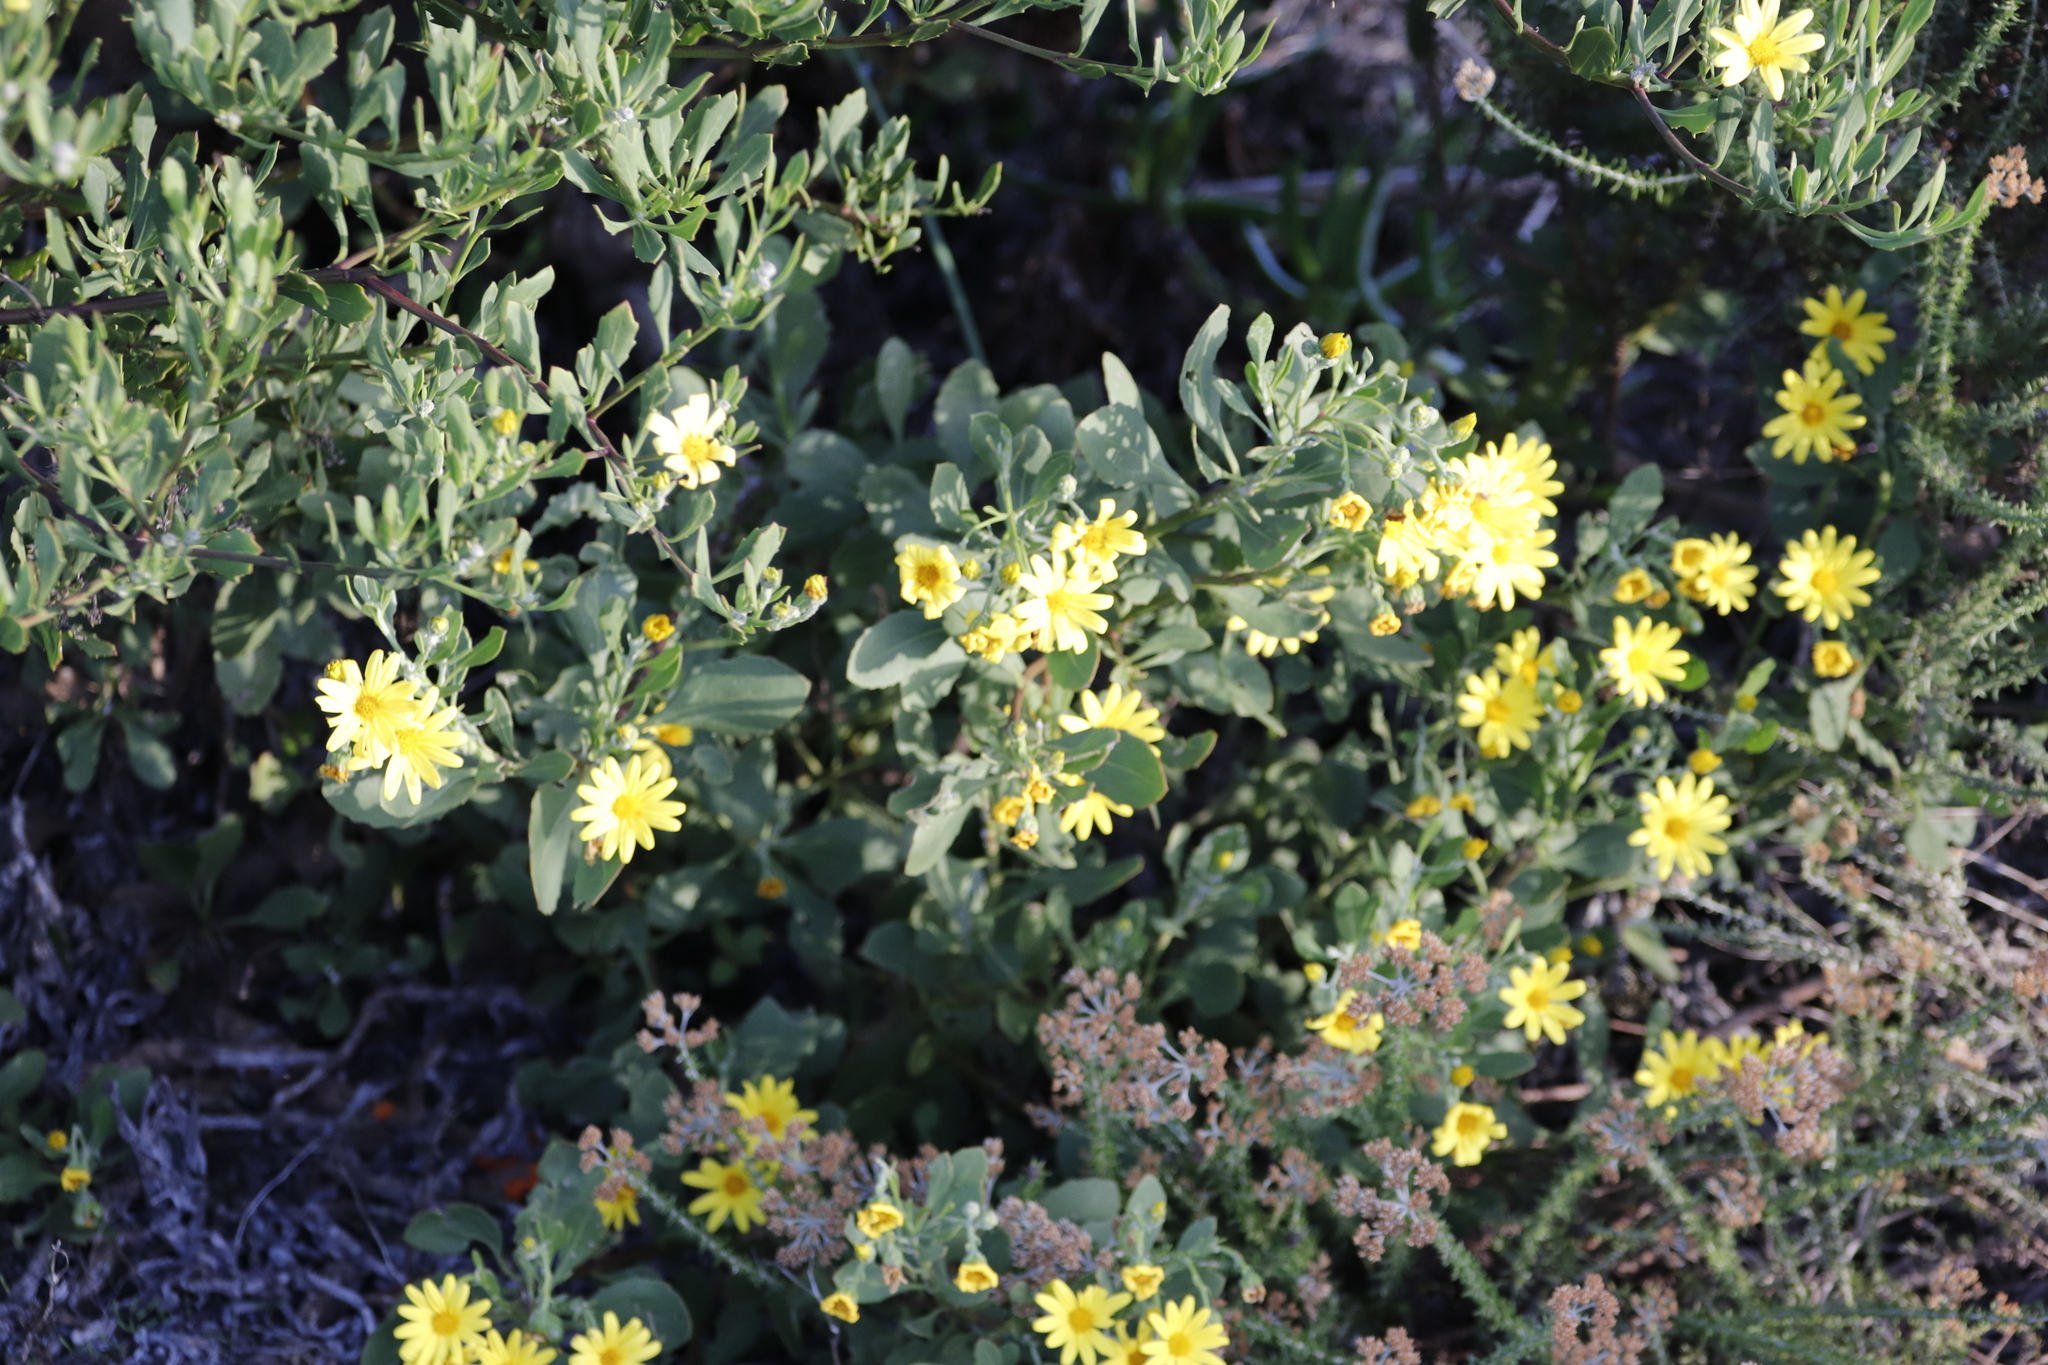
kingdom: Plantae
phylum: Tracheophyta
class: Magnoliopsida
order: Asterales
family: Asteraceae
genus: Osteospermum
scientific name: Osteospermum moniliferum
